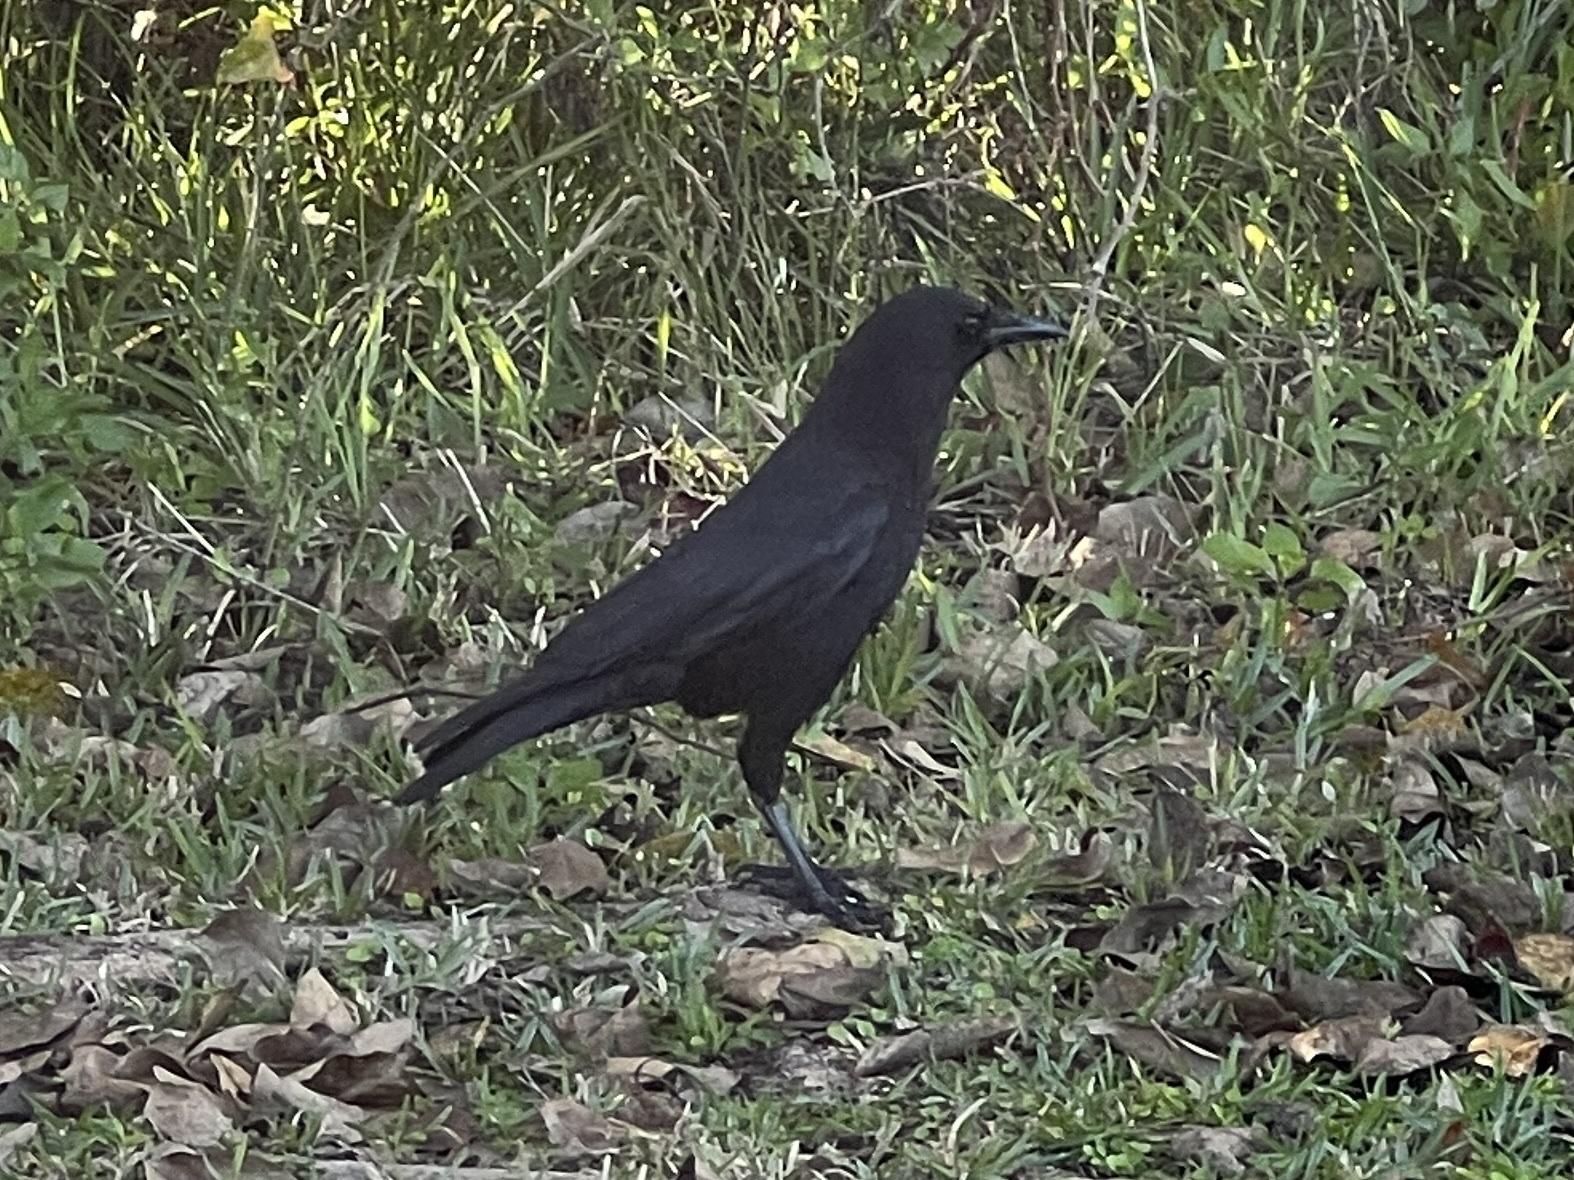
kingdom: Animalia
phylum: Chordata
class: Aves
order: Passeriformes
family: Corvidae
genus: Corvus
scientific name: Corvus brachyrhynchos
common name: American crow
